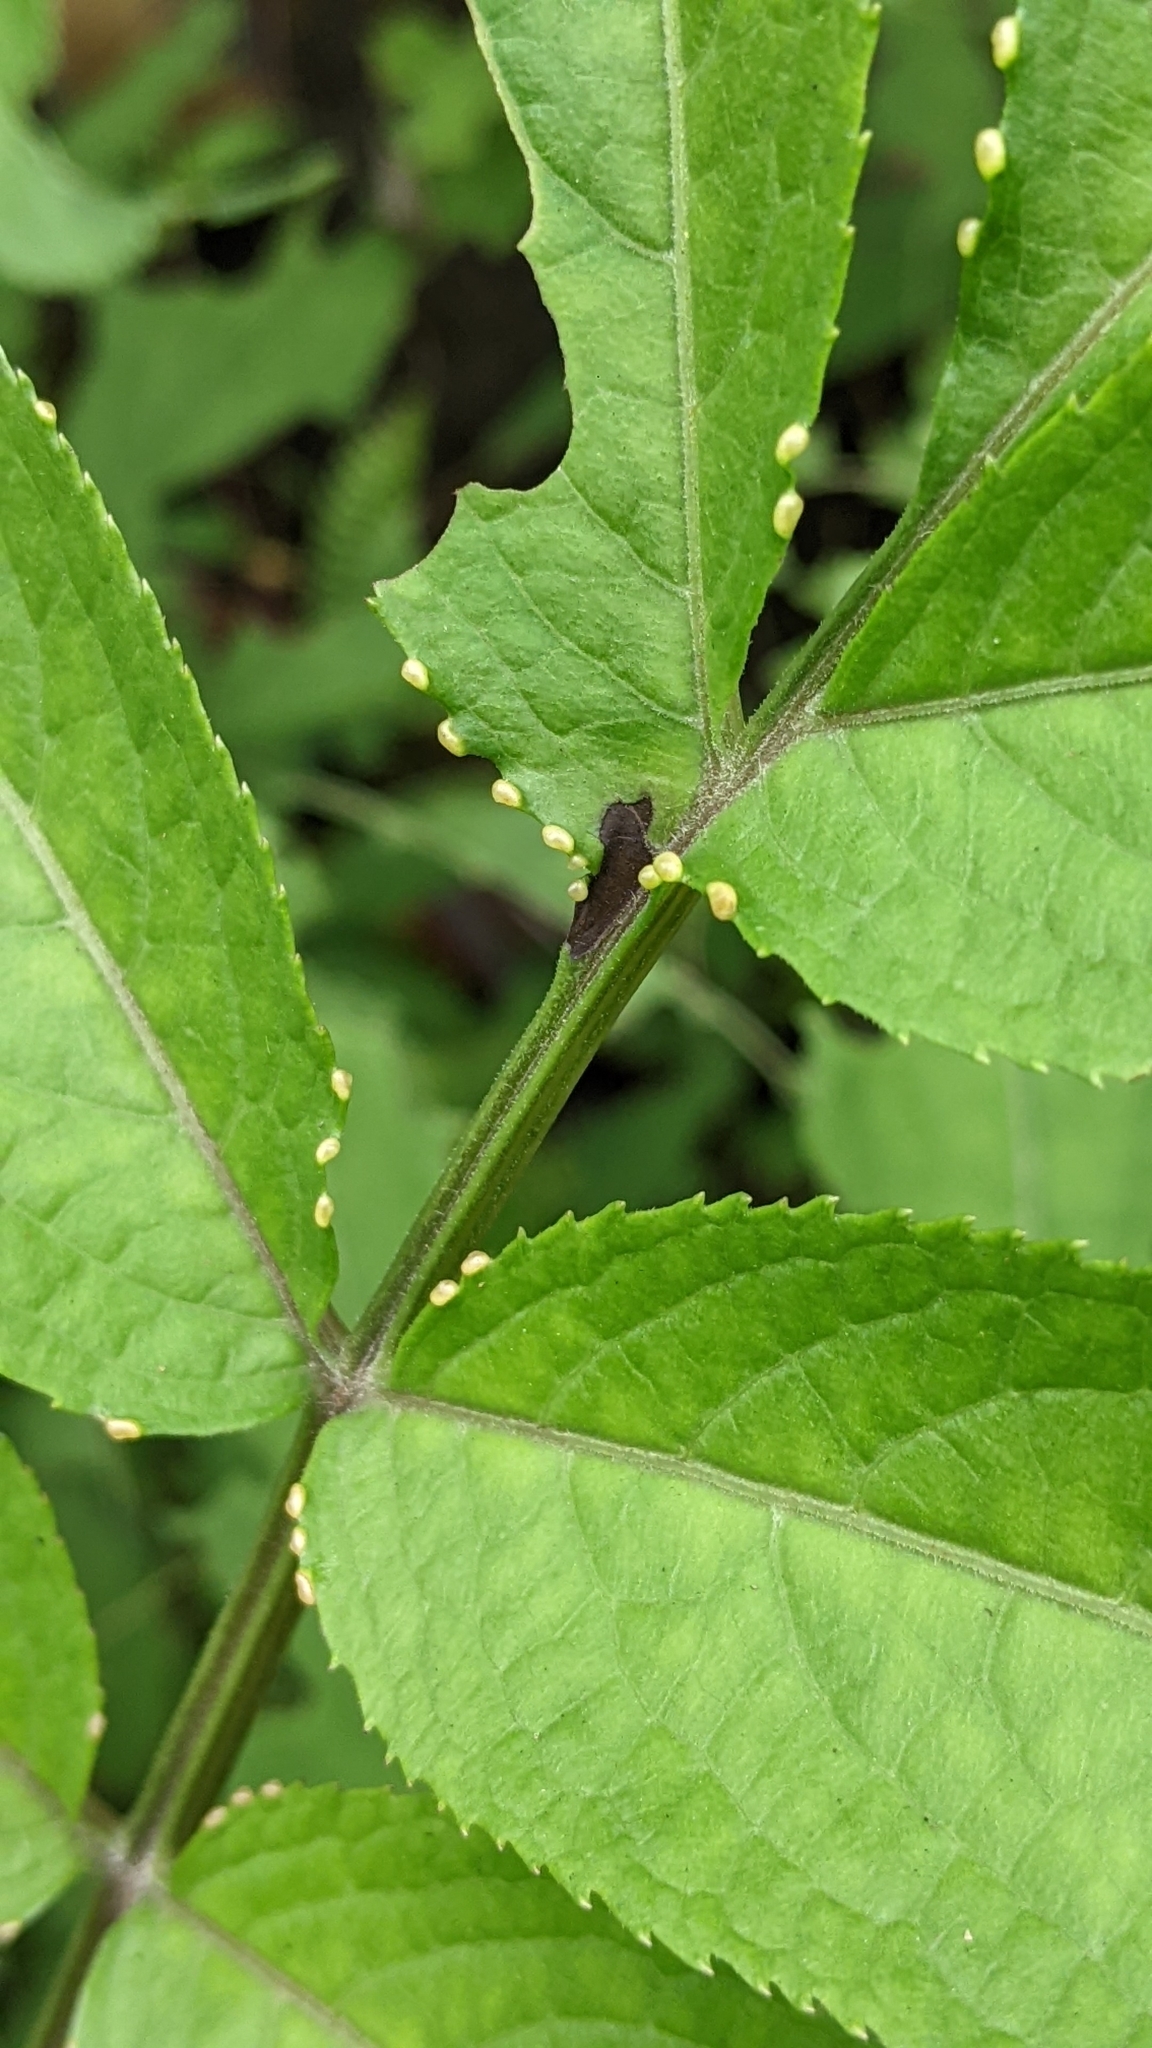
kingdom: Plantae
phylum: Tracheophyta
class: Magnoliopsida
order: Dipsacales
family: Viburnaceae
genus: Sambucus
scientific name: Sambucus javanica
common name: Chinese elder
